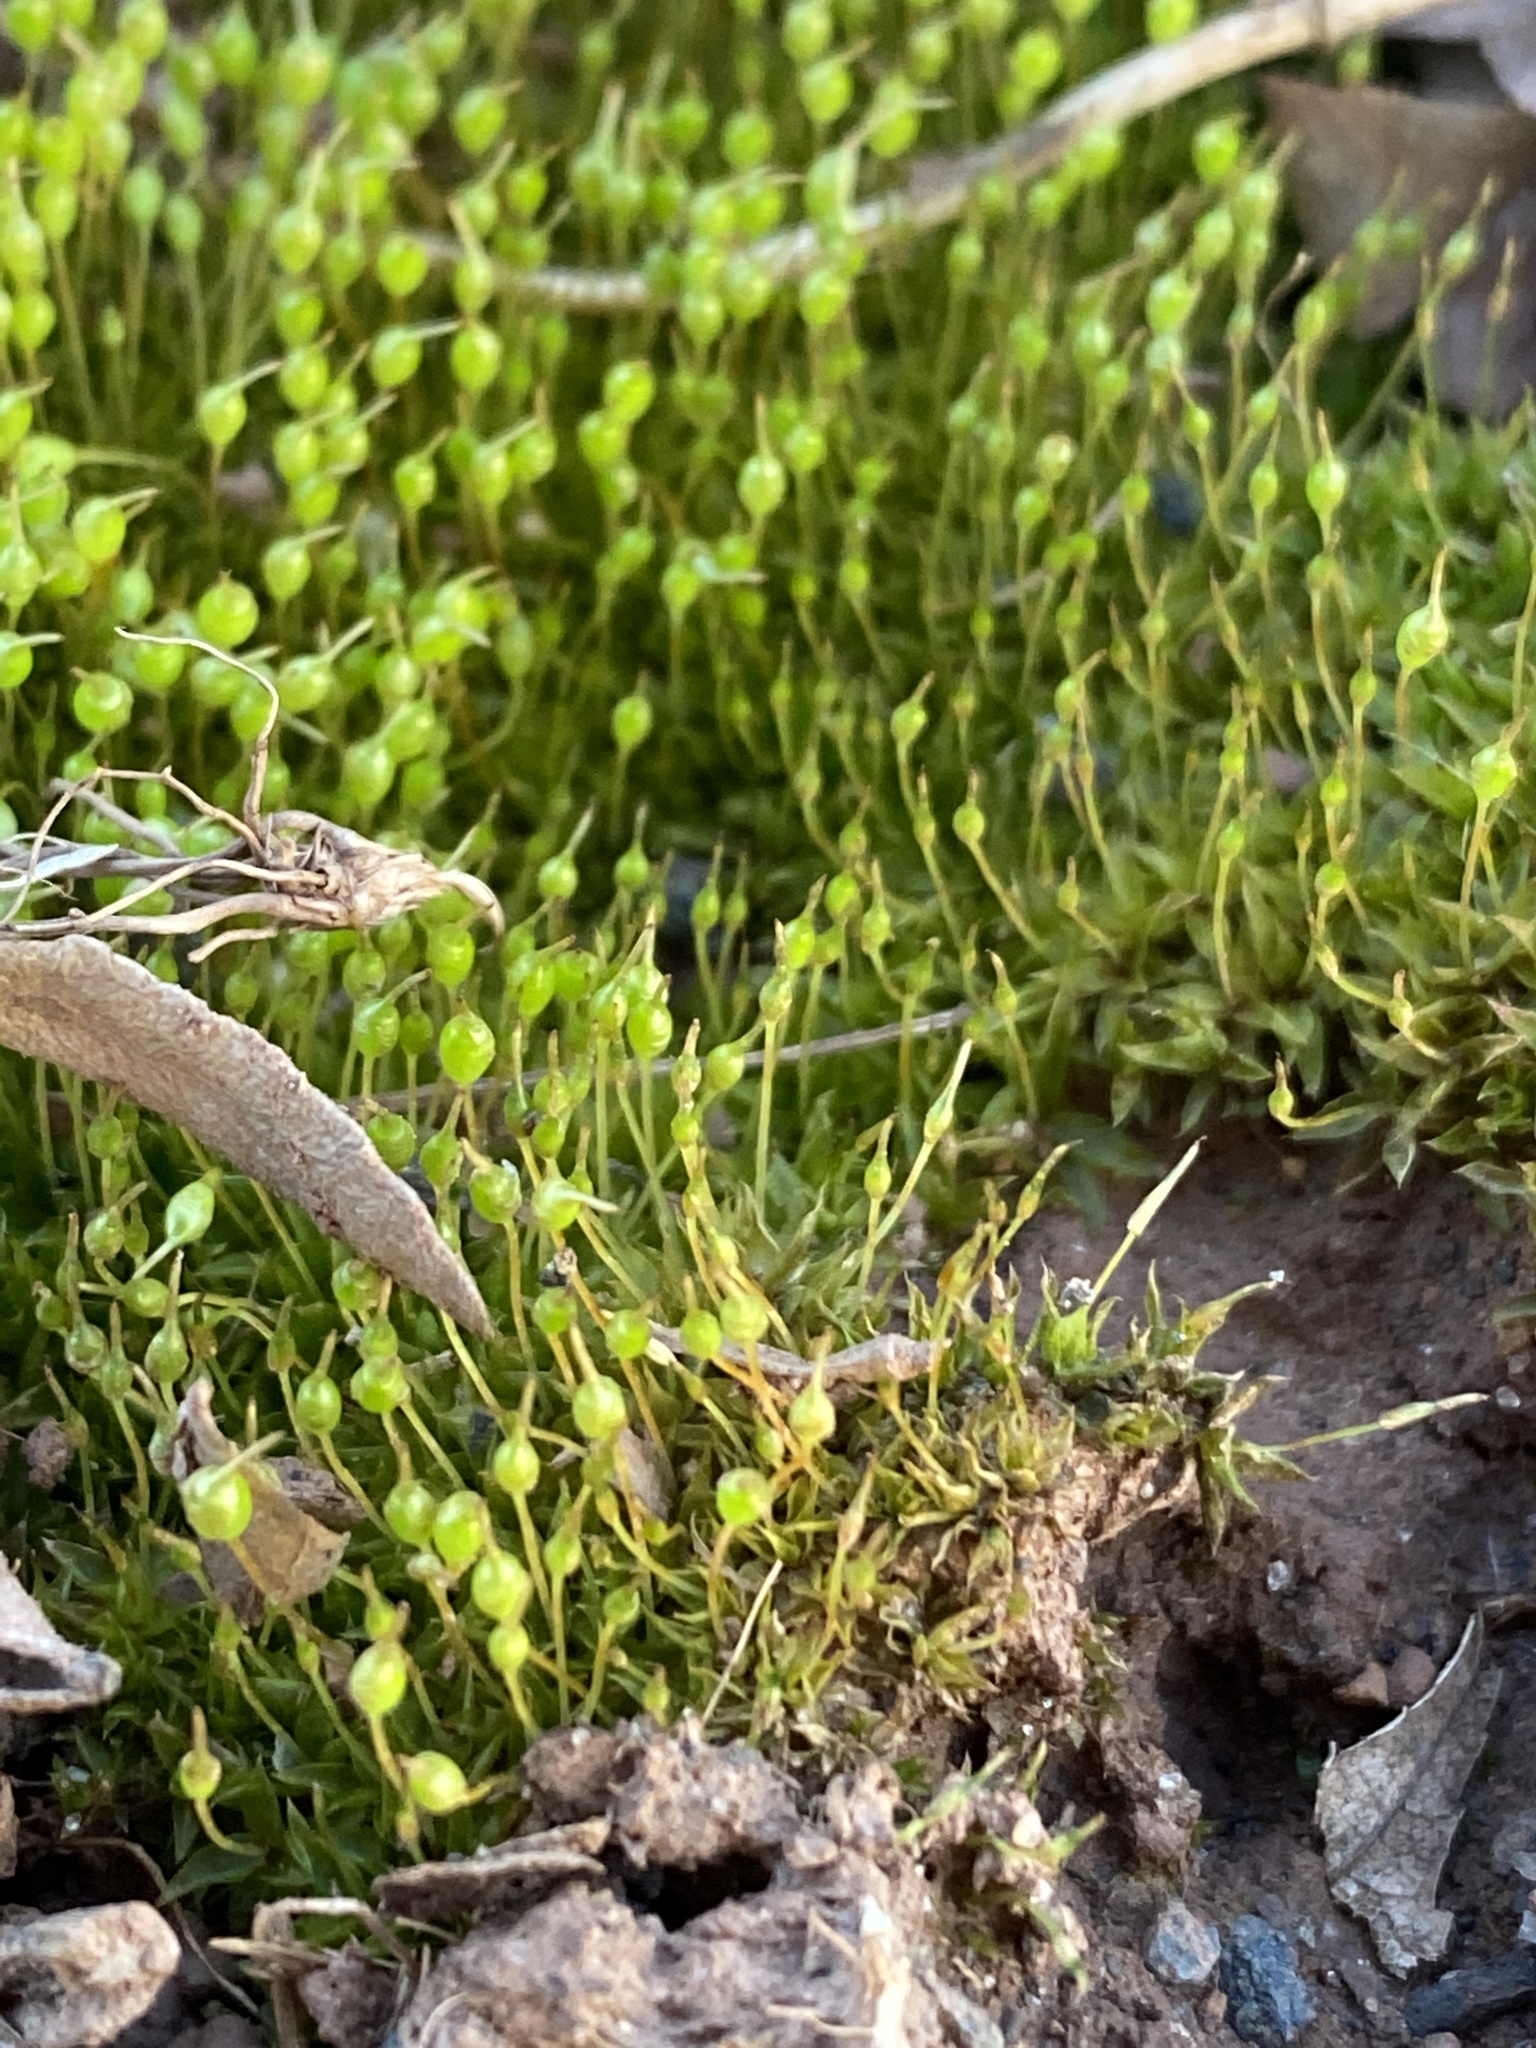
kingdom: Plantae
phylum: Bryophyta
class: Bryopsida
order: Funariales
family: Funariaceae
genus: Physcomitrium
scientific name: Physcomitrium pyriforme
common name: Common bladder-moss
